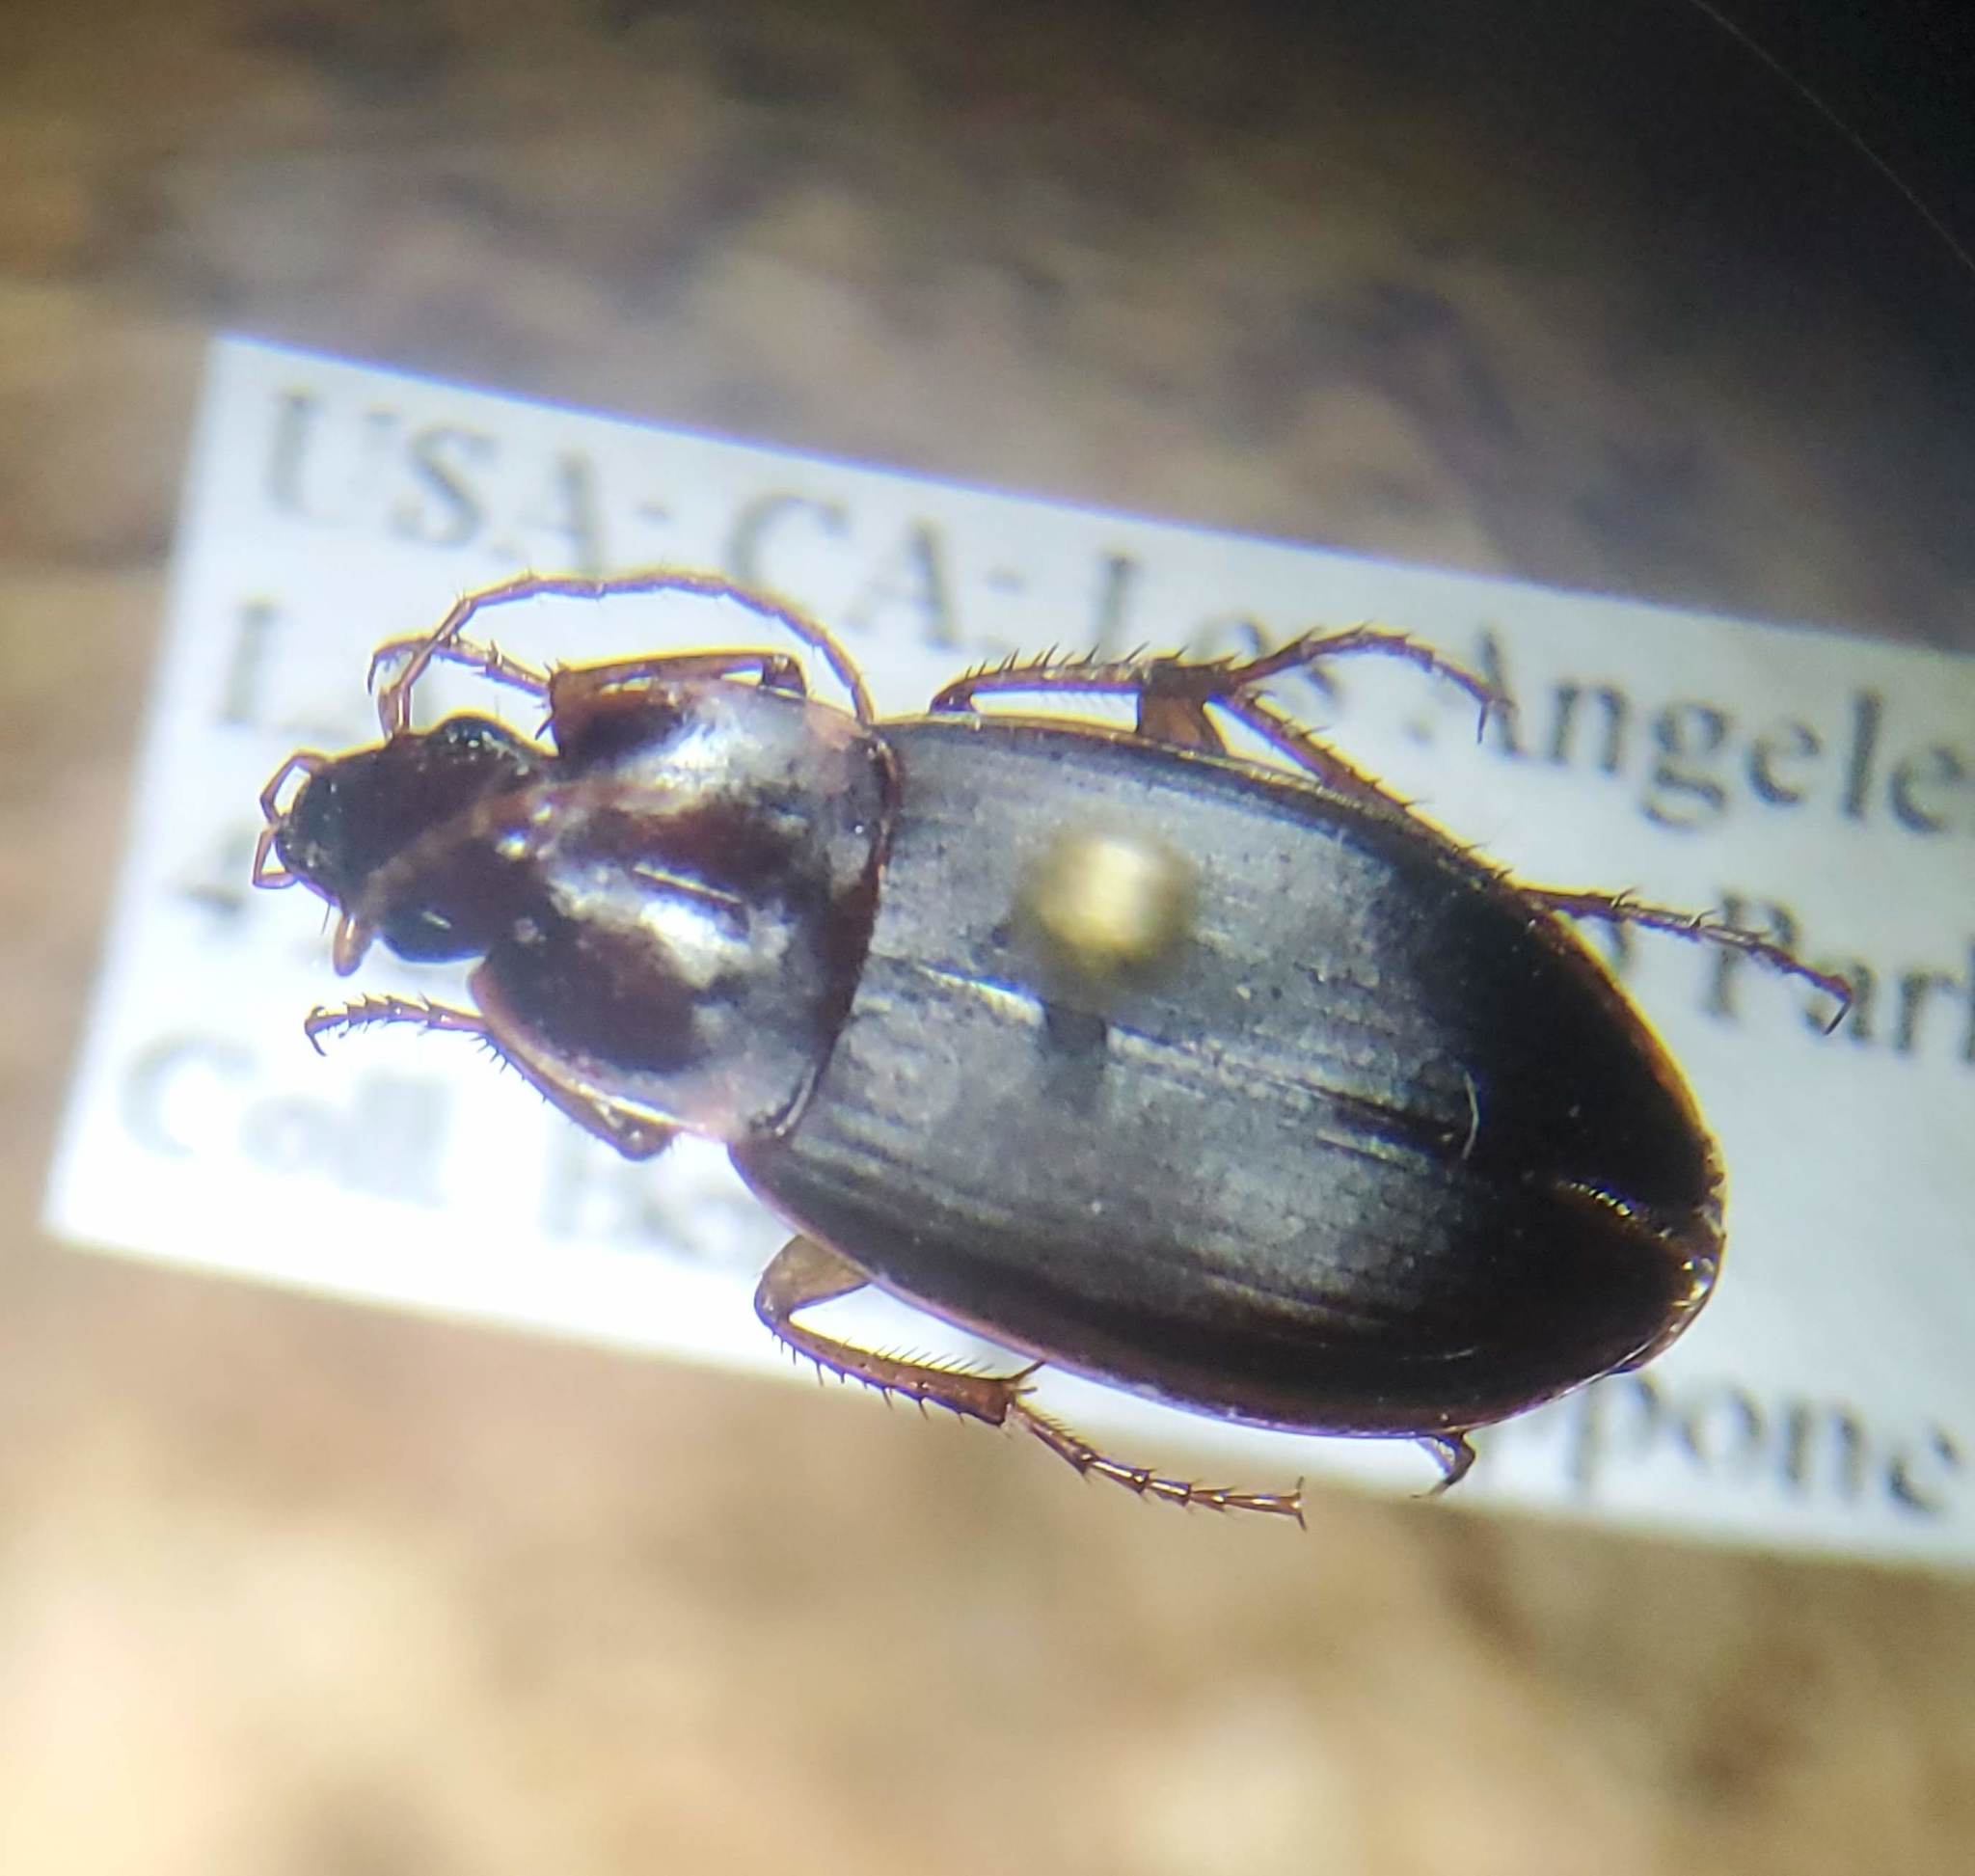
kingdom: Animalia
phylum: Arthropoda
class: Insecta
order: Coleoptera
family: Carabidae
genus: Calathus
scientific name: Calathus ruficollis
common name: Red-collared harp ground beetle
